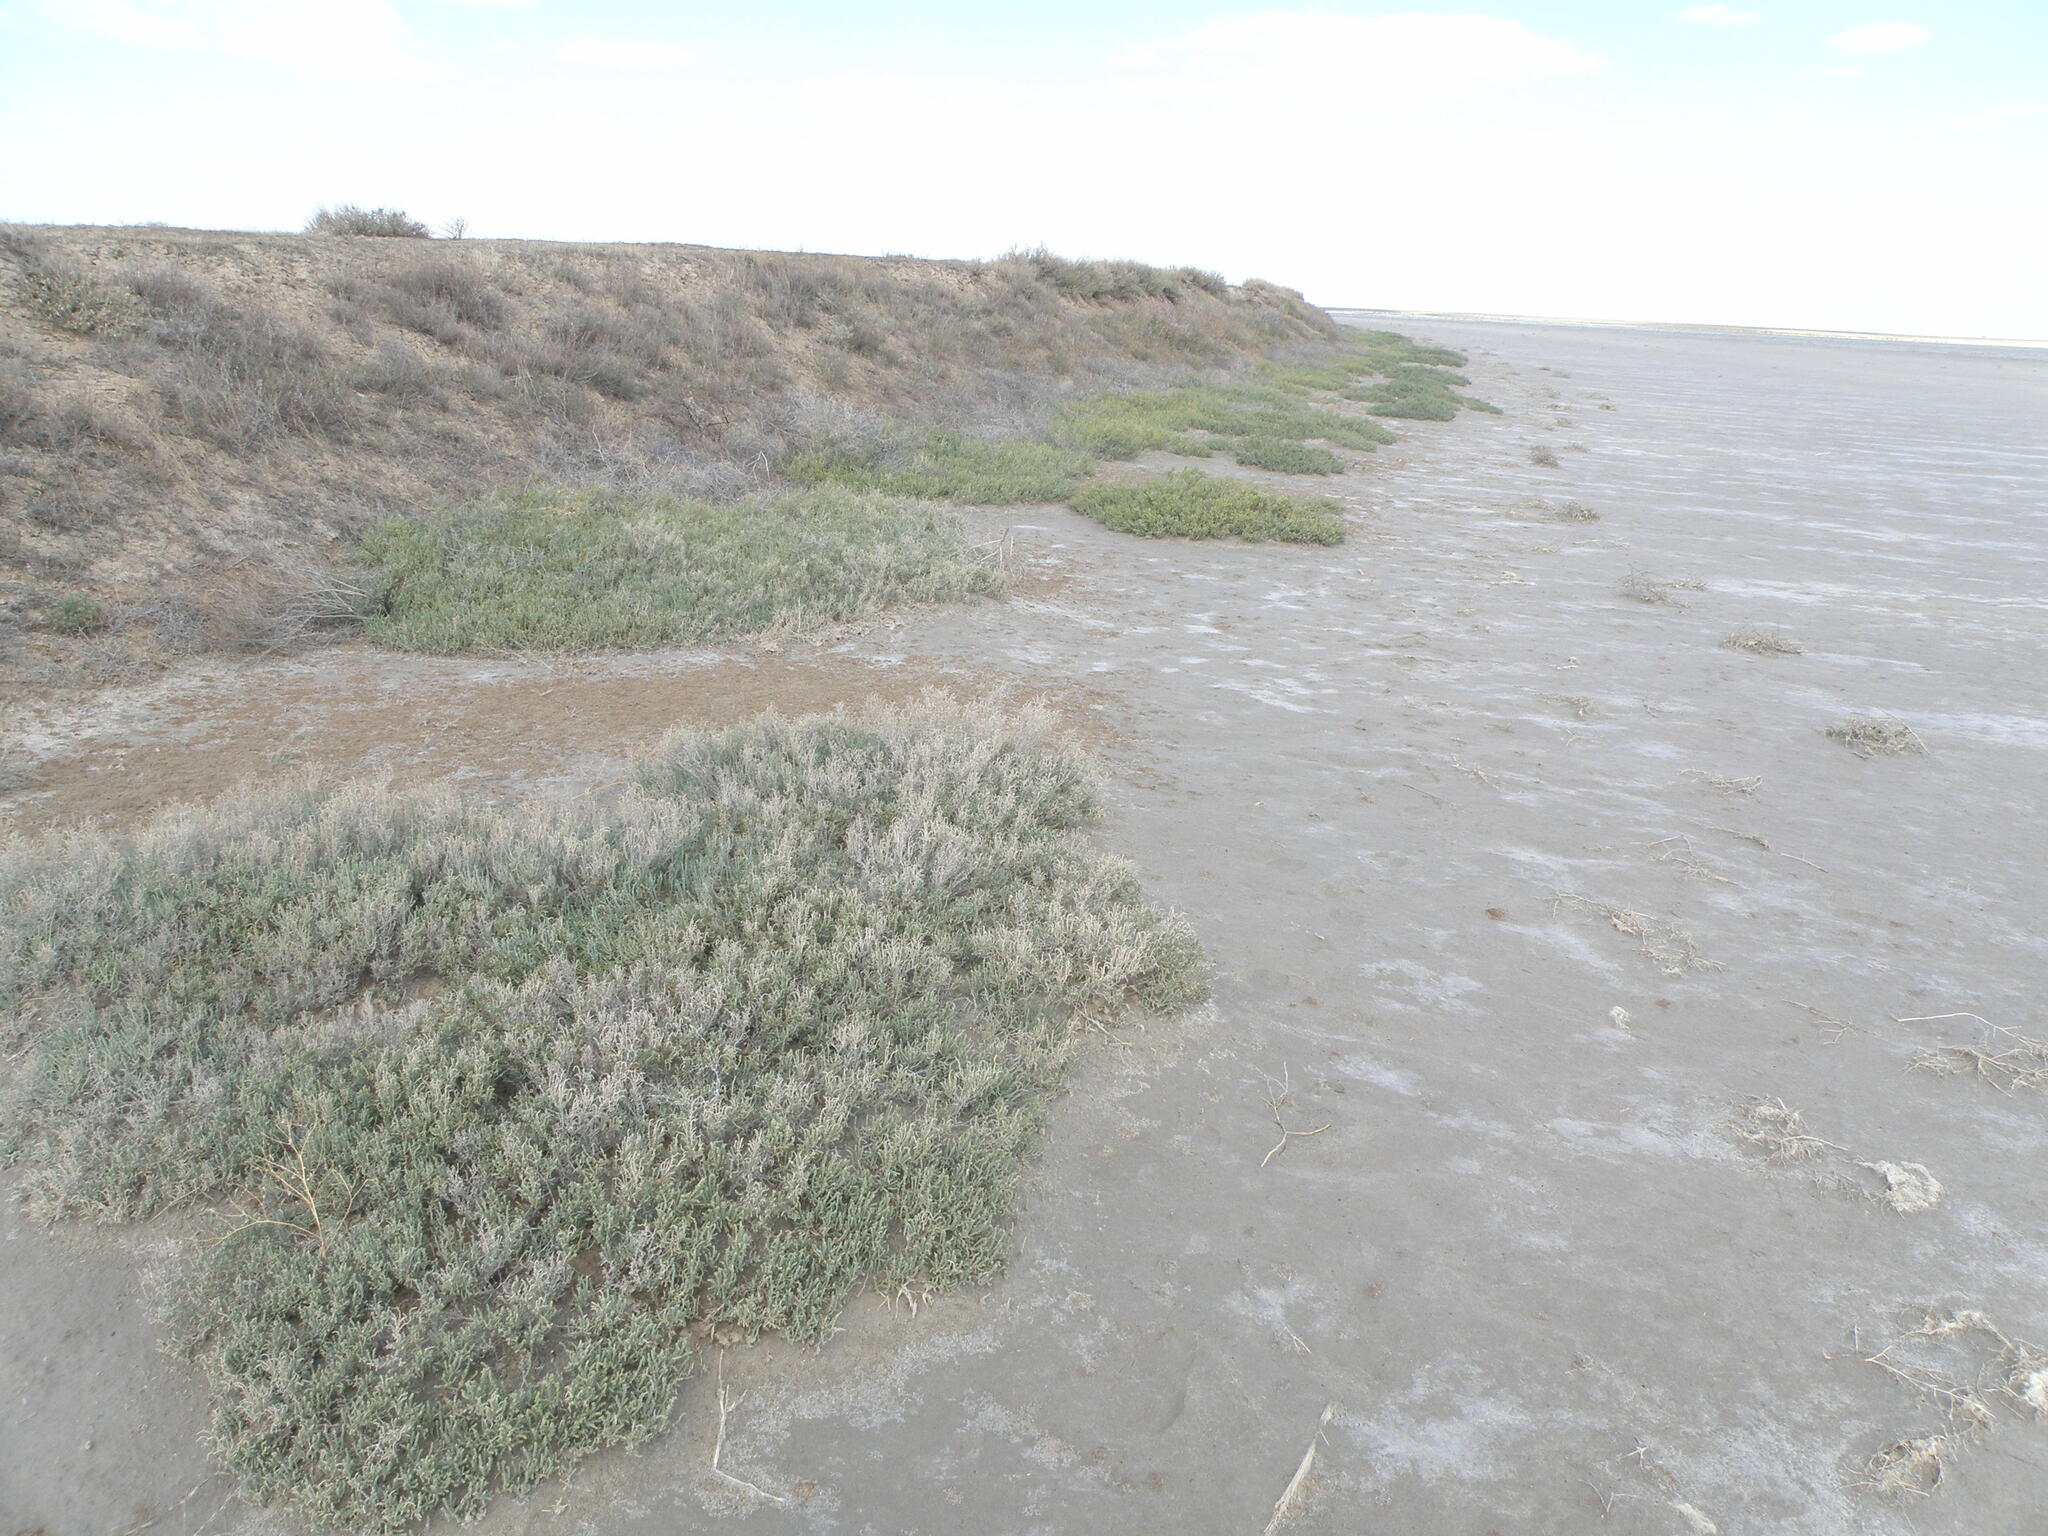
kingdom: Plantae
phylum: Tracheophyta
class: Magnoliopsida
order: Caryophyllales
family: Amaranthaceae
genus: Halocnemum
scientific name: Halocnemum strobilaceum
